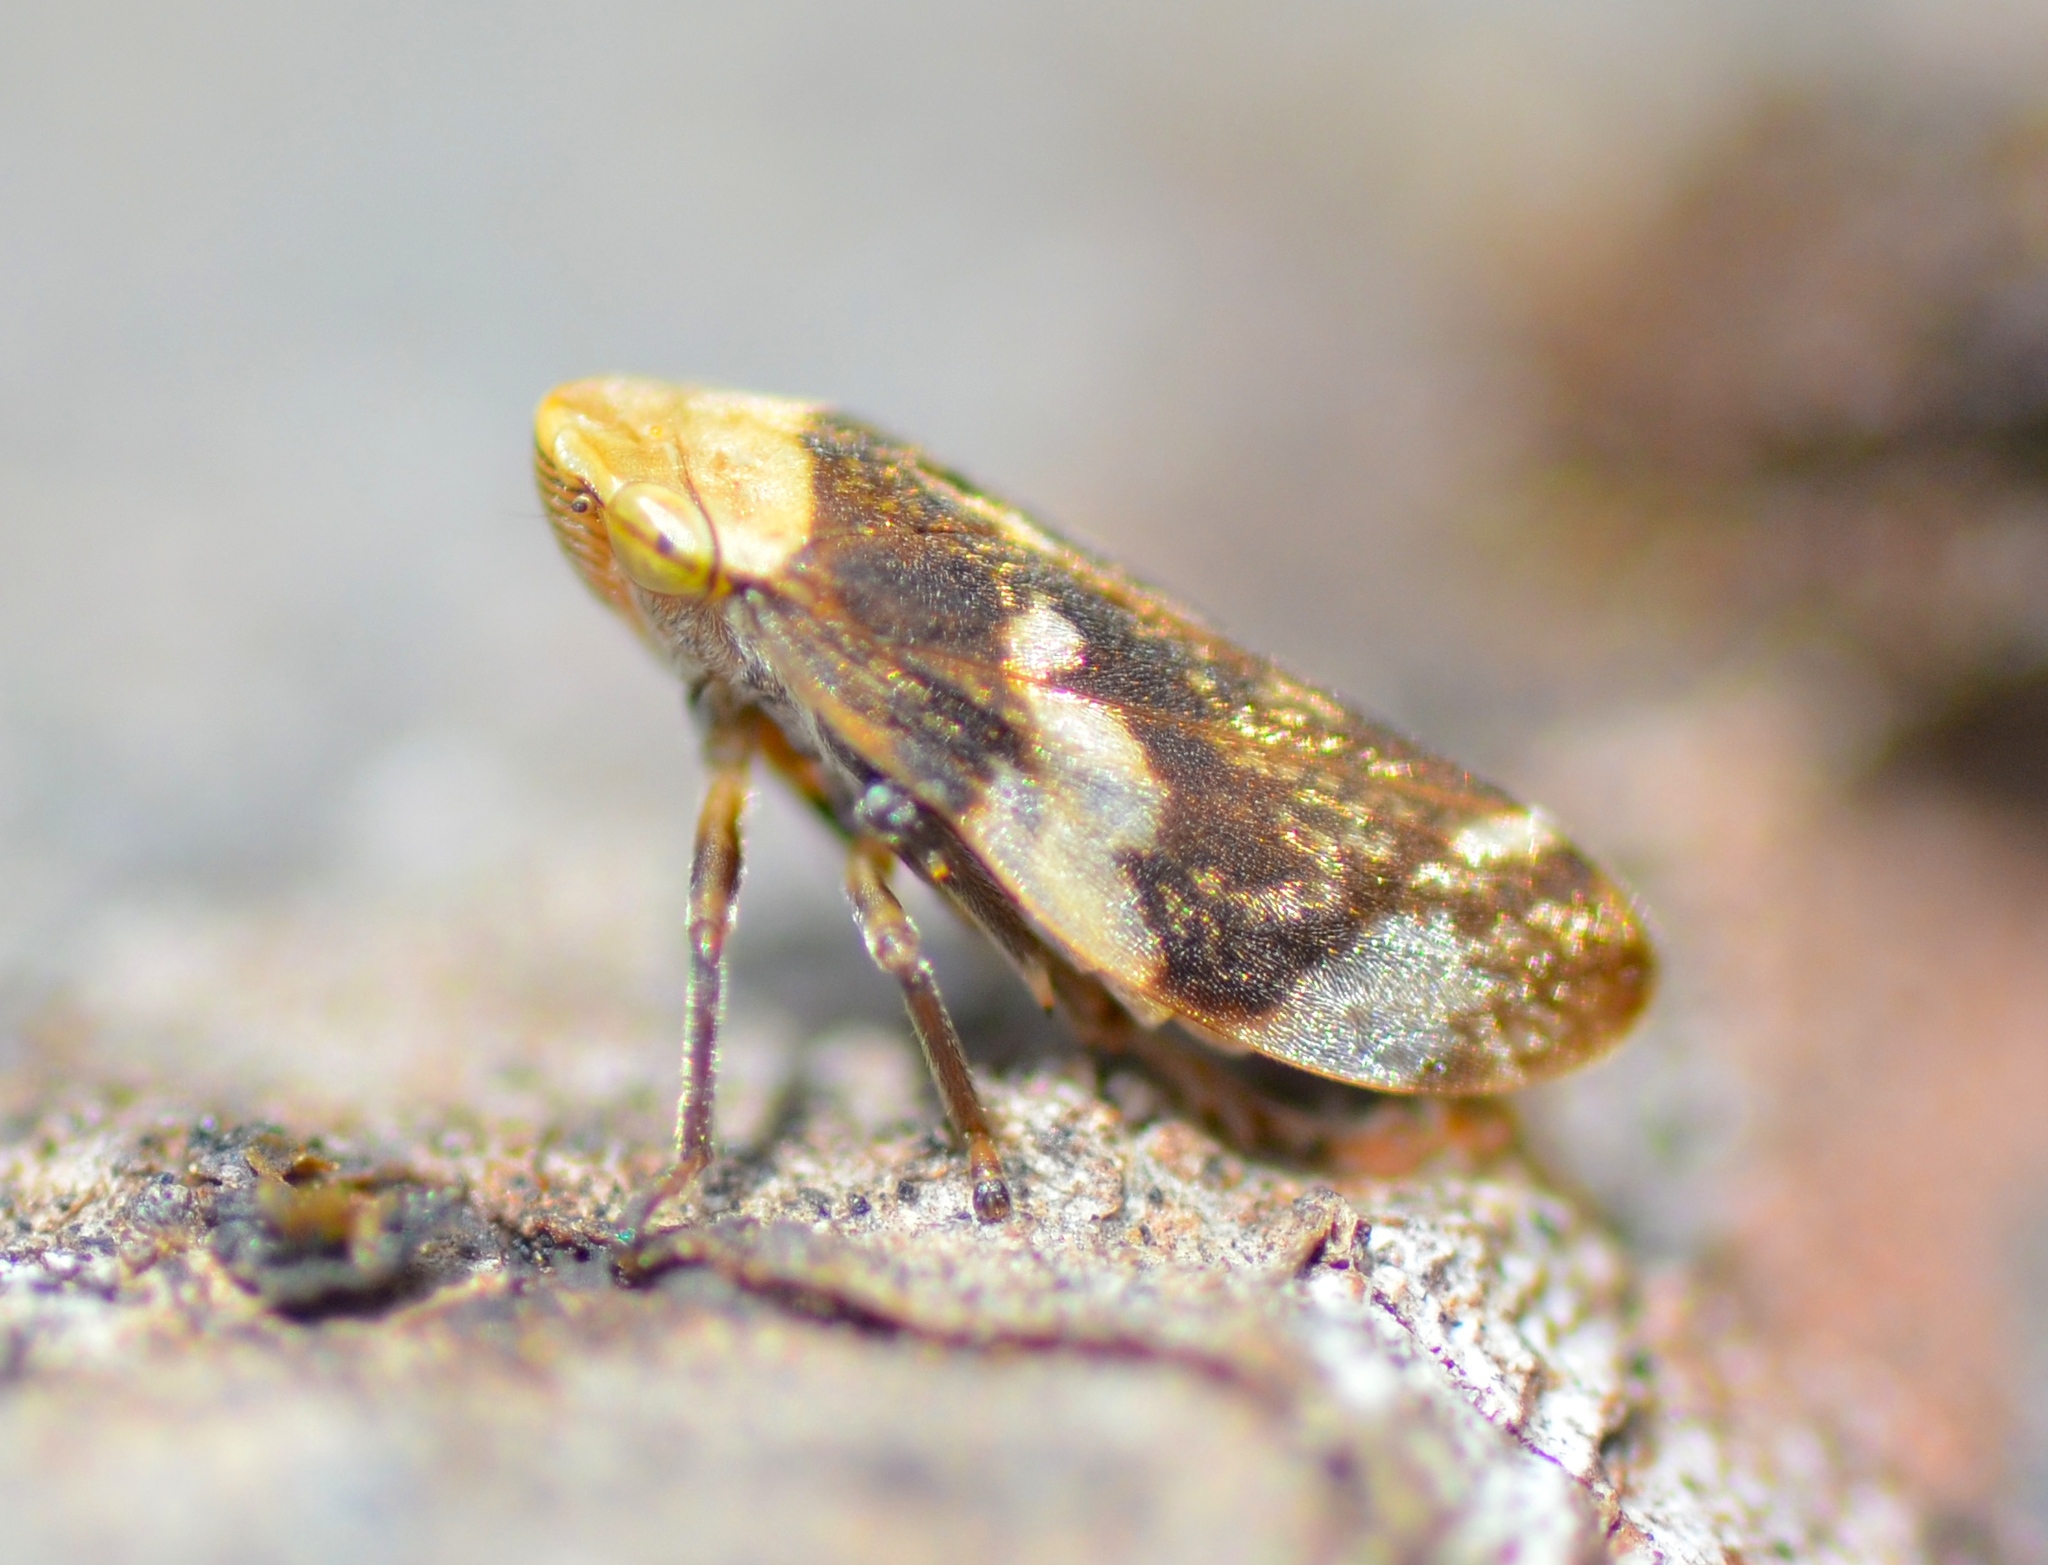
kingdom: Animalia
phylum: Arthropoda
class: Insecta
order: Hemiptera
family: Aphrophoridae
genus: Philaenus
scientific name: Philaenus spumarius
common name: Meadow spittlebug
